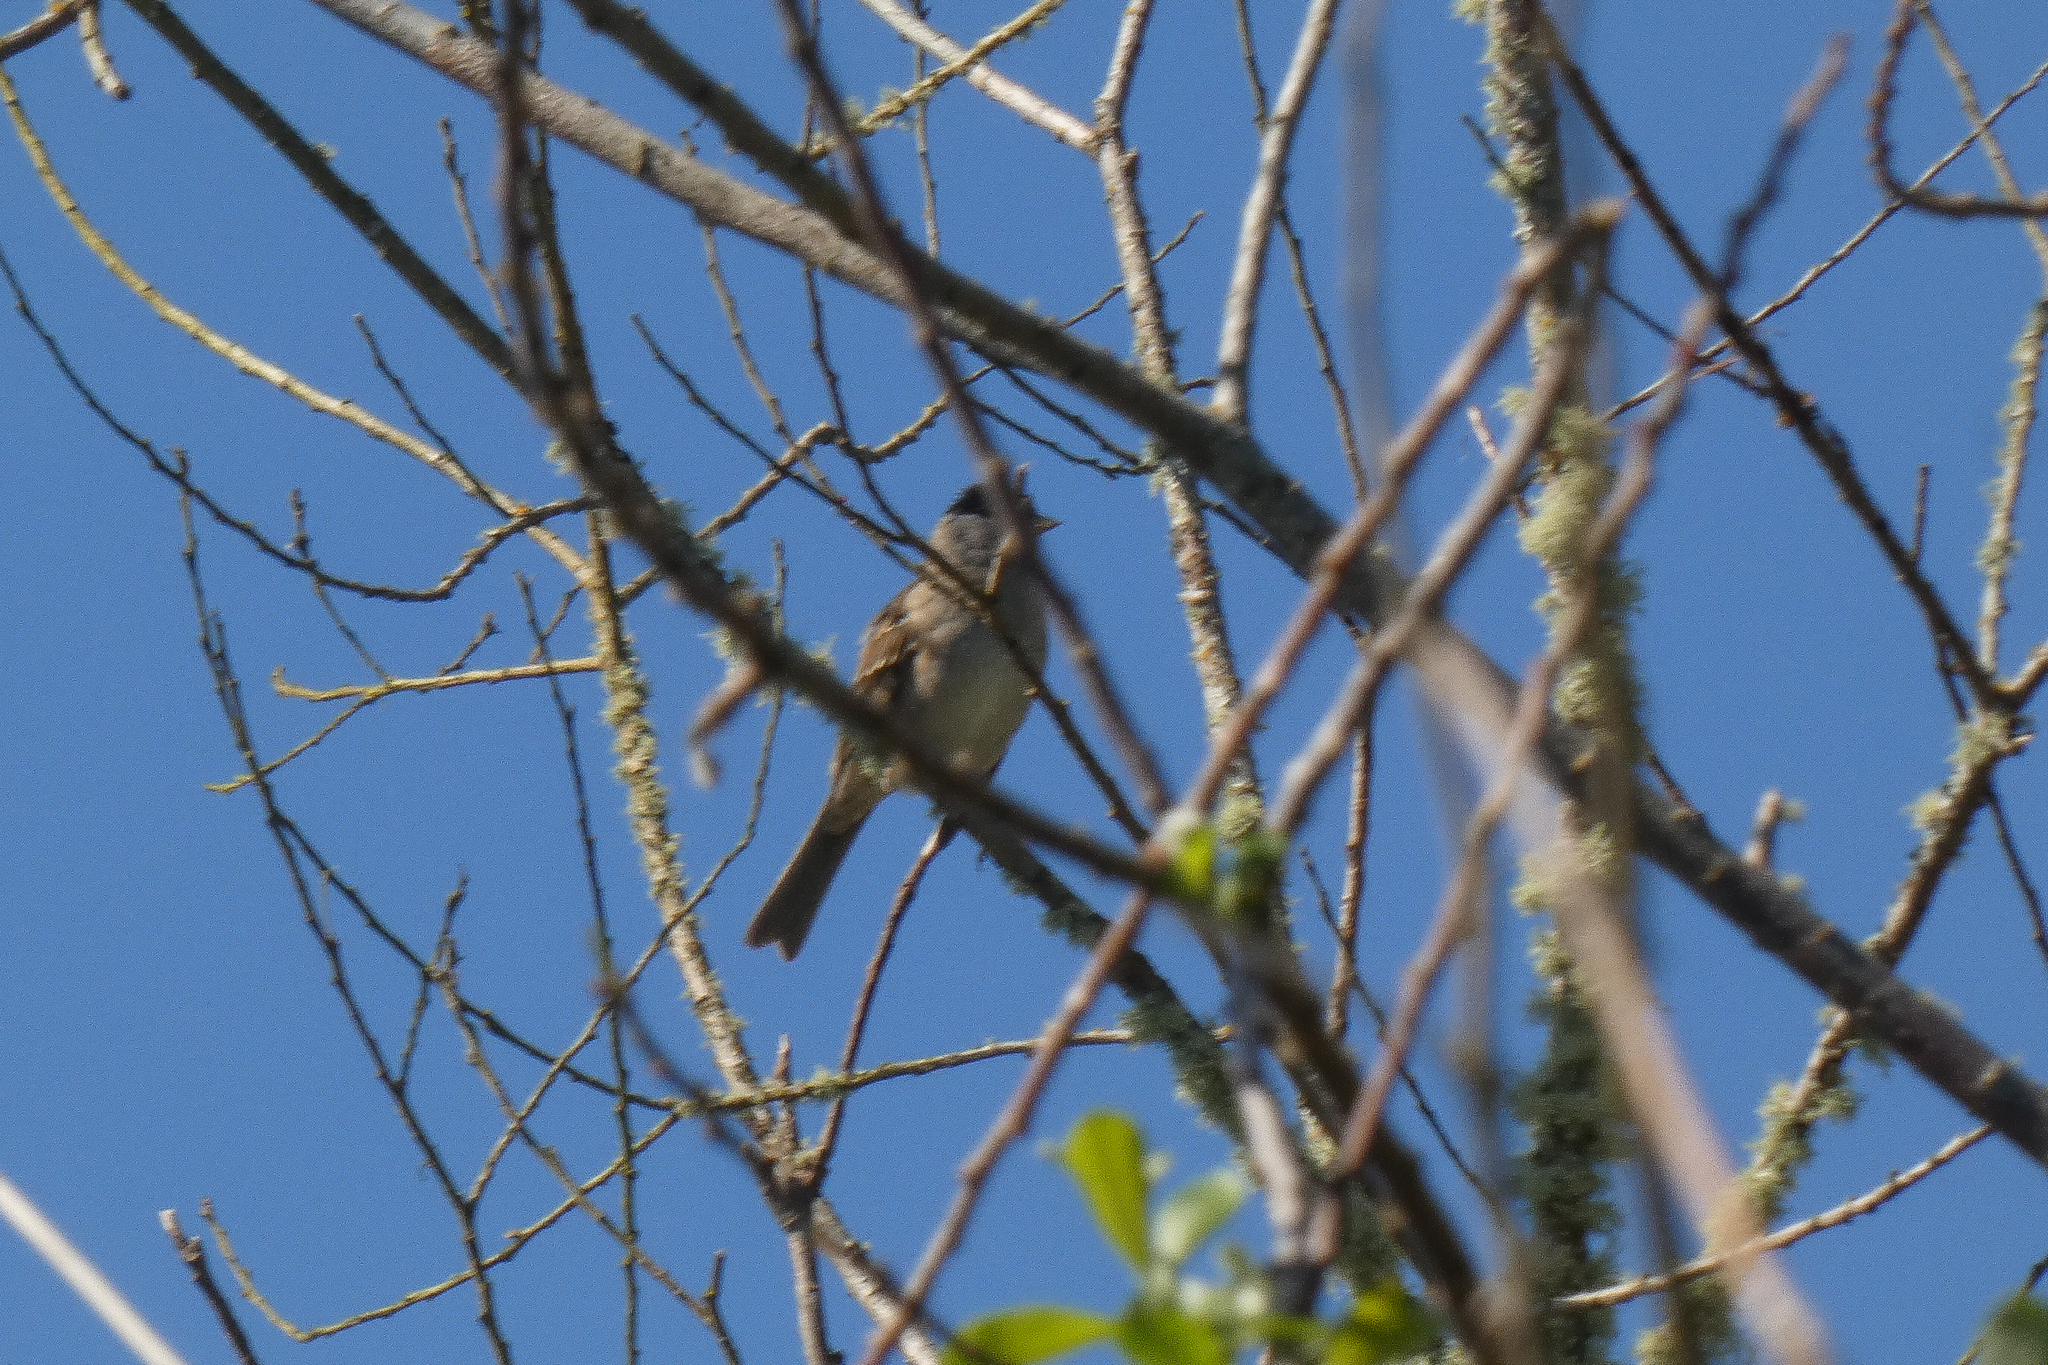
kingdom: Animalia
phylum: Chordata
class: Aves
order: Passeriformes
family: Passerellidae
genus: Zonotrichia
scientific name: Zonotrichia atricapilla
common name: Golden-crowned sparrow
